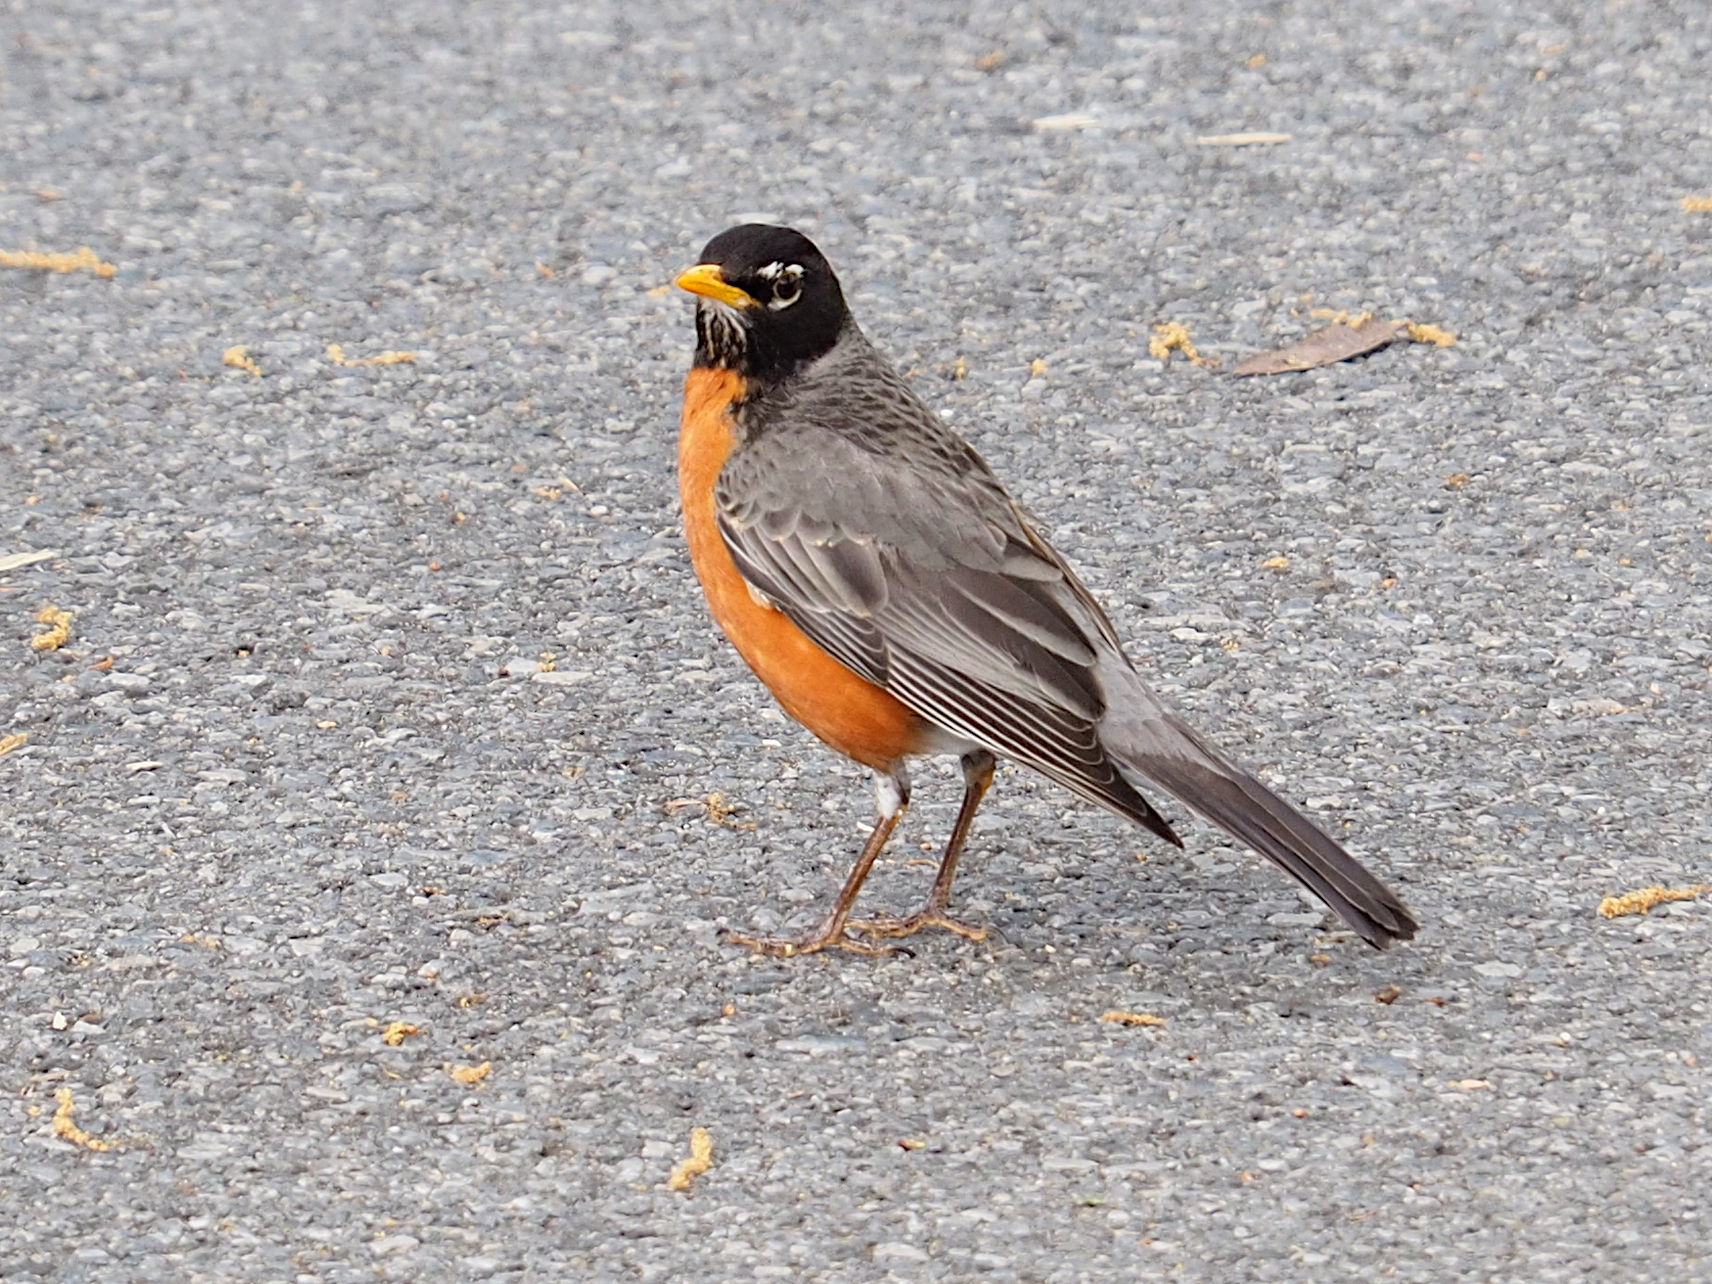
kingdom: Animalia
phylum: Chordata
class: Aves
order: Passeriformes
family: Turdidae
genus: Turdus
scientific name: Turdus migratorius
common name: American robin
